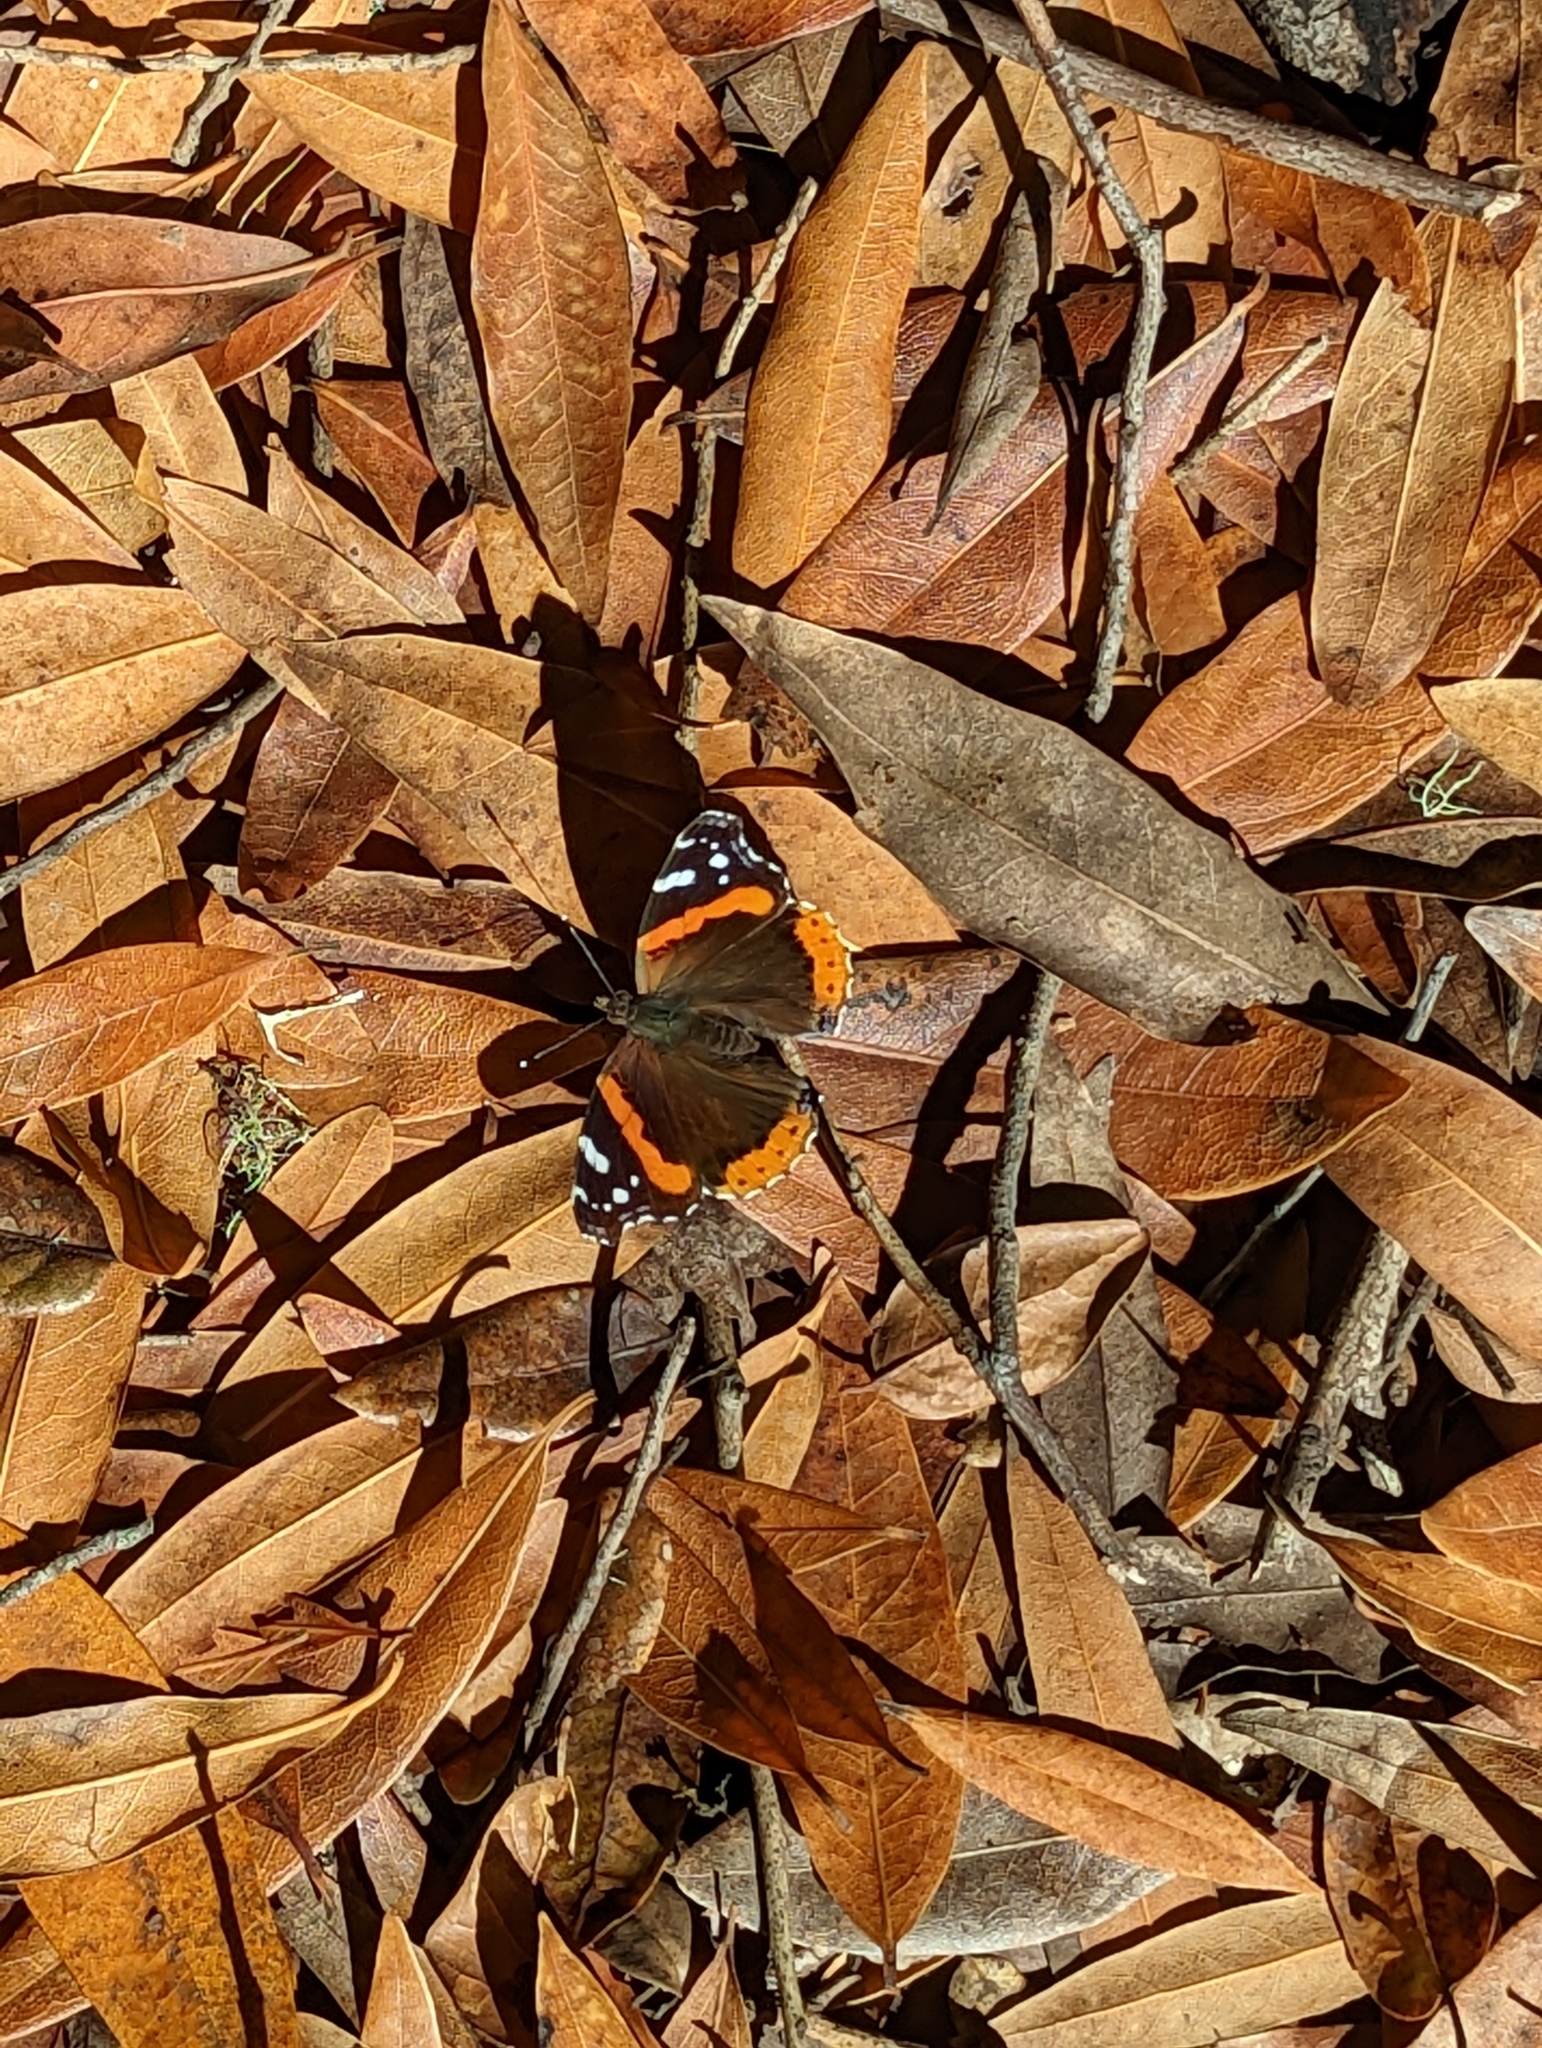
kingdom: Animalia
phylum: Arthropoda
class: Insecta
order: Lepidoptera
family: Nymphalidae
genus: Vanessa
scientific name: Vanessa atalanta
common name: Red admiral
